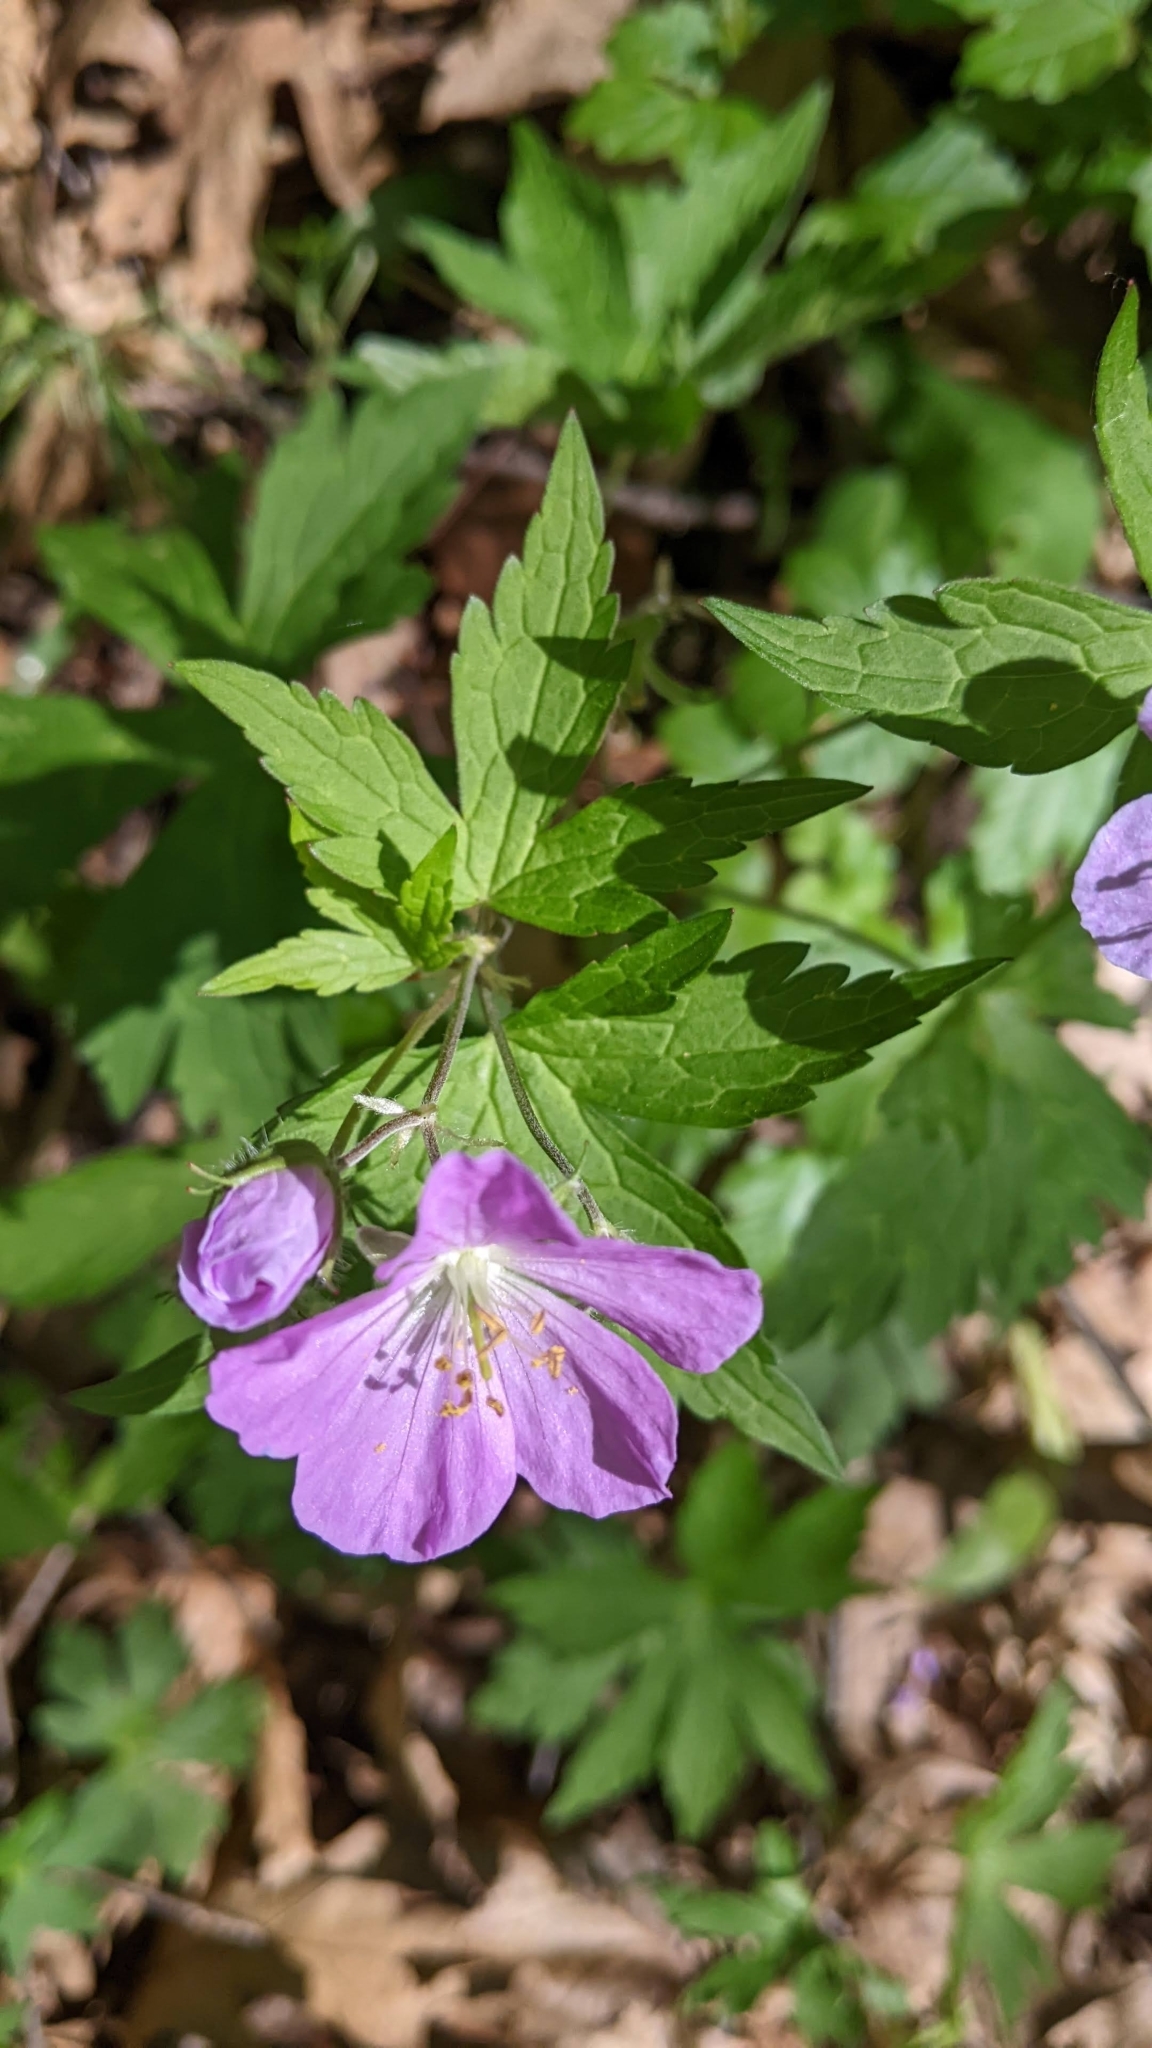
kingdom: Plantae
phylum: Tracheophyta
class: Magnoliopsida
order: Geraniales
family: Geraniaceae
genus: Geranium
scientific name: Geranium maculatum
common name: Spotted geranium
